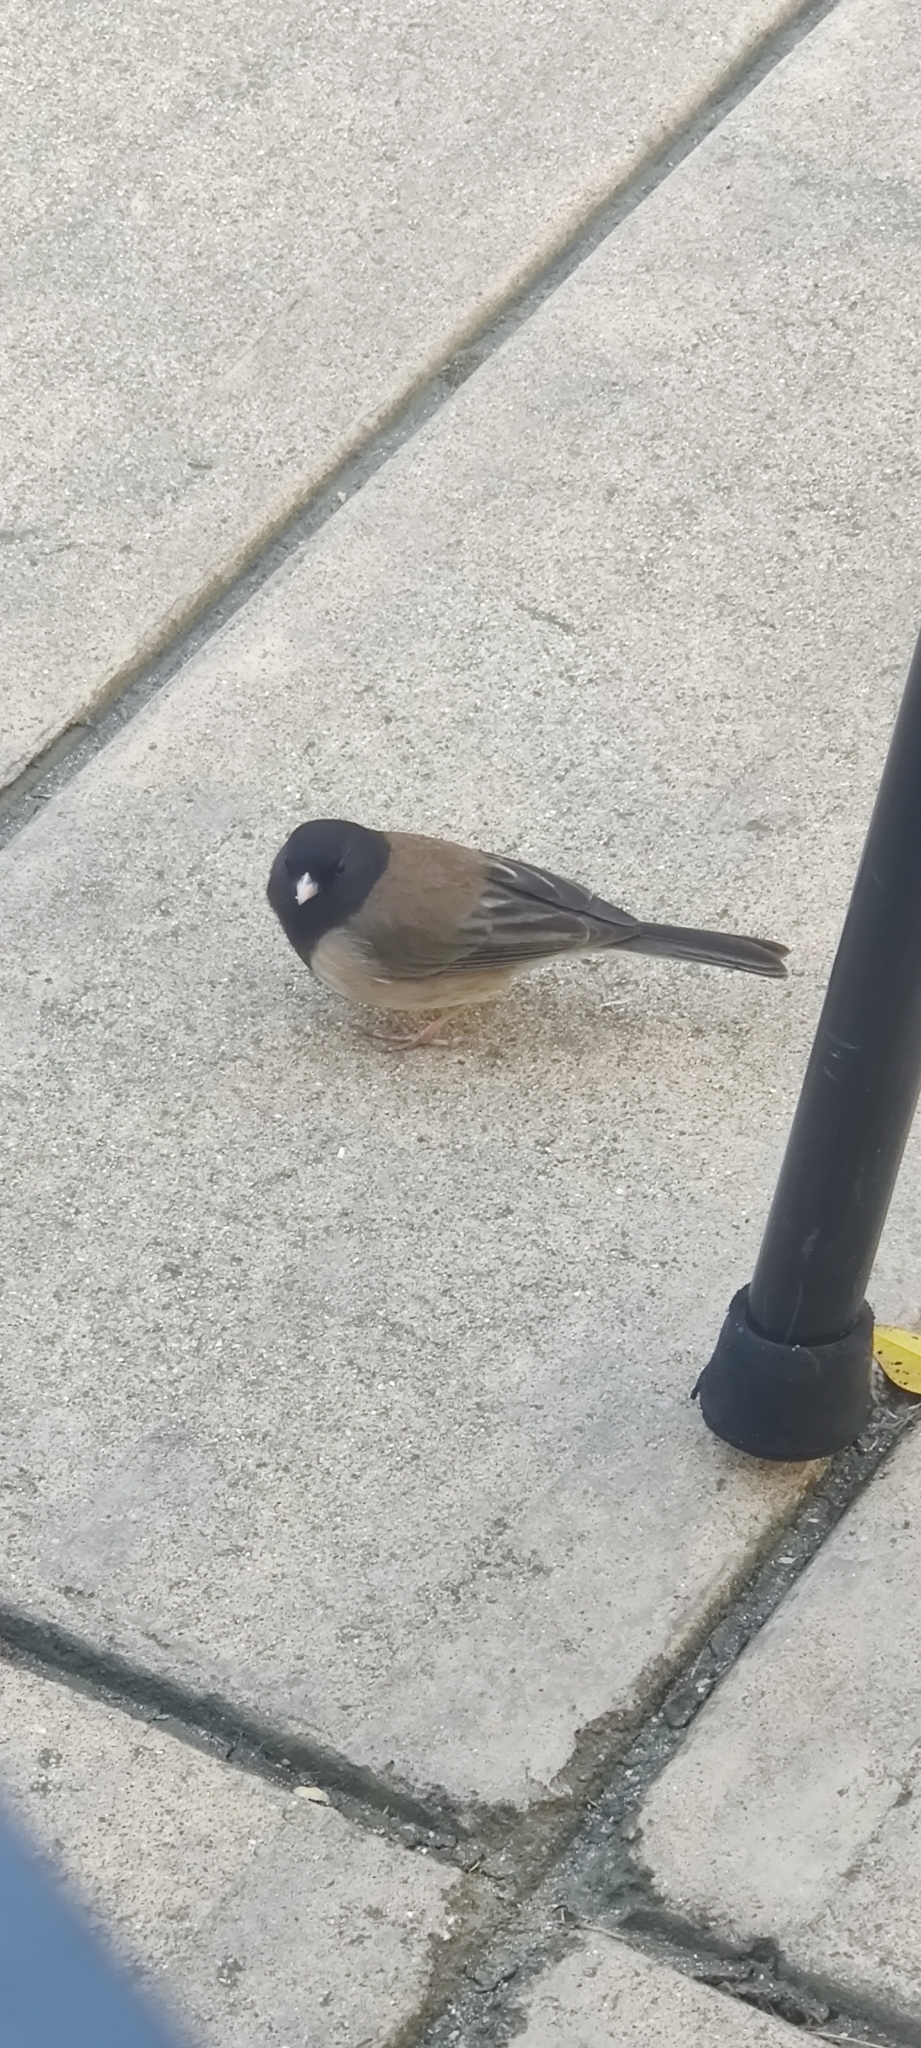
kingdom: Animalia
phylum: Chordata
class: Aves
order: Passeriformes
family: Passerellidae
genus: Junco
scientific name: Junco hyemalis
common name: Dark-eyed junco
